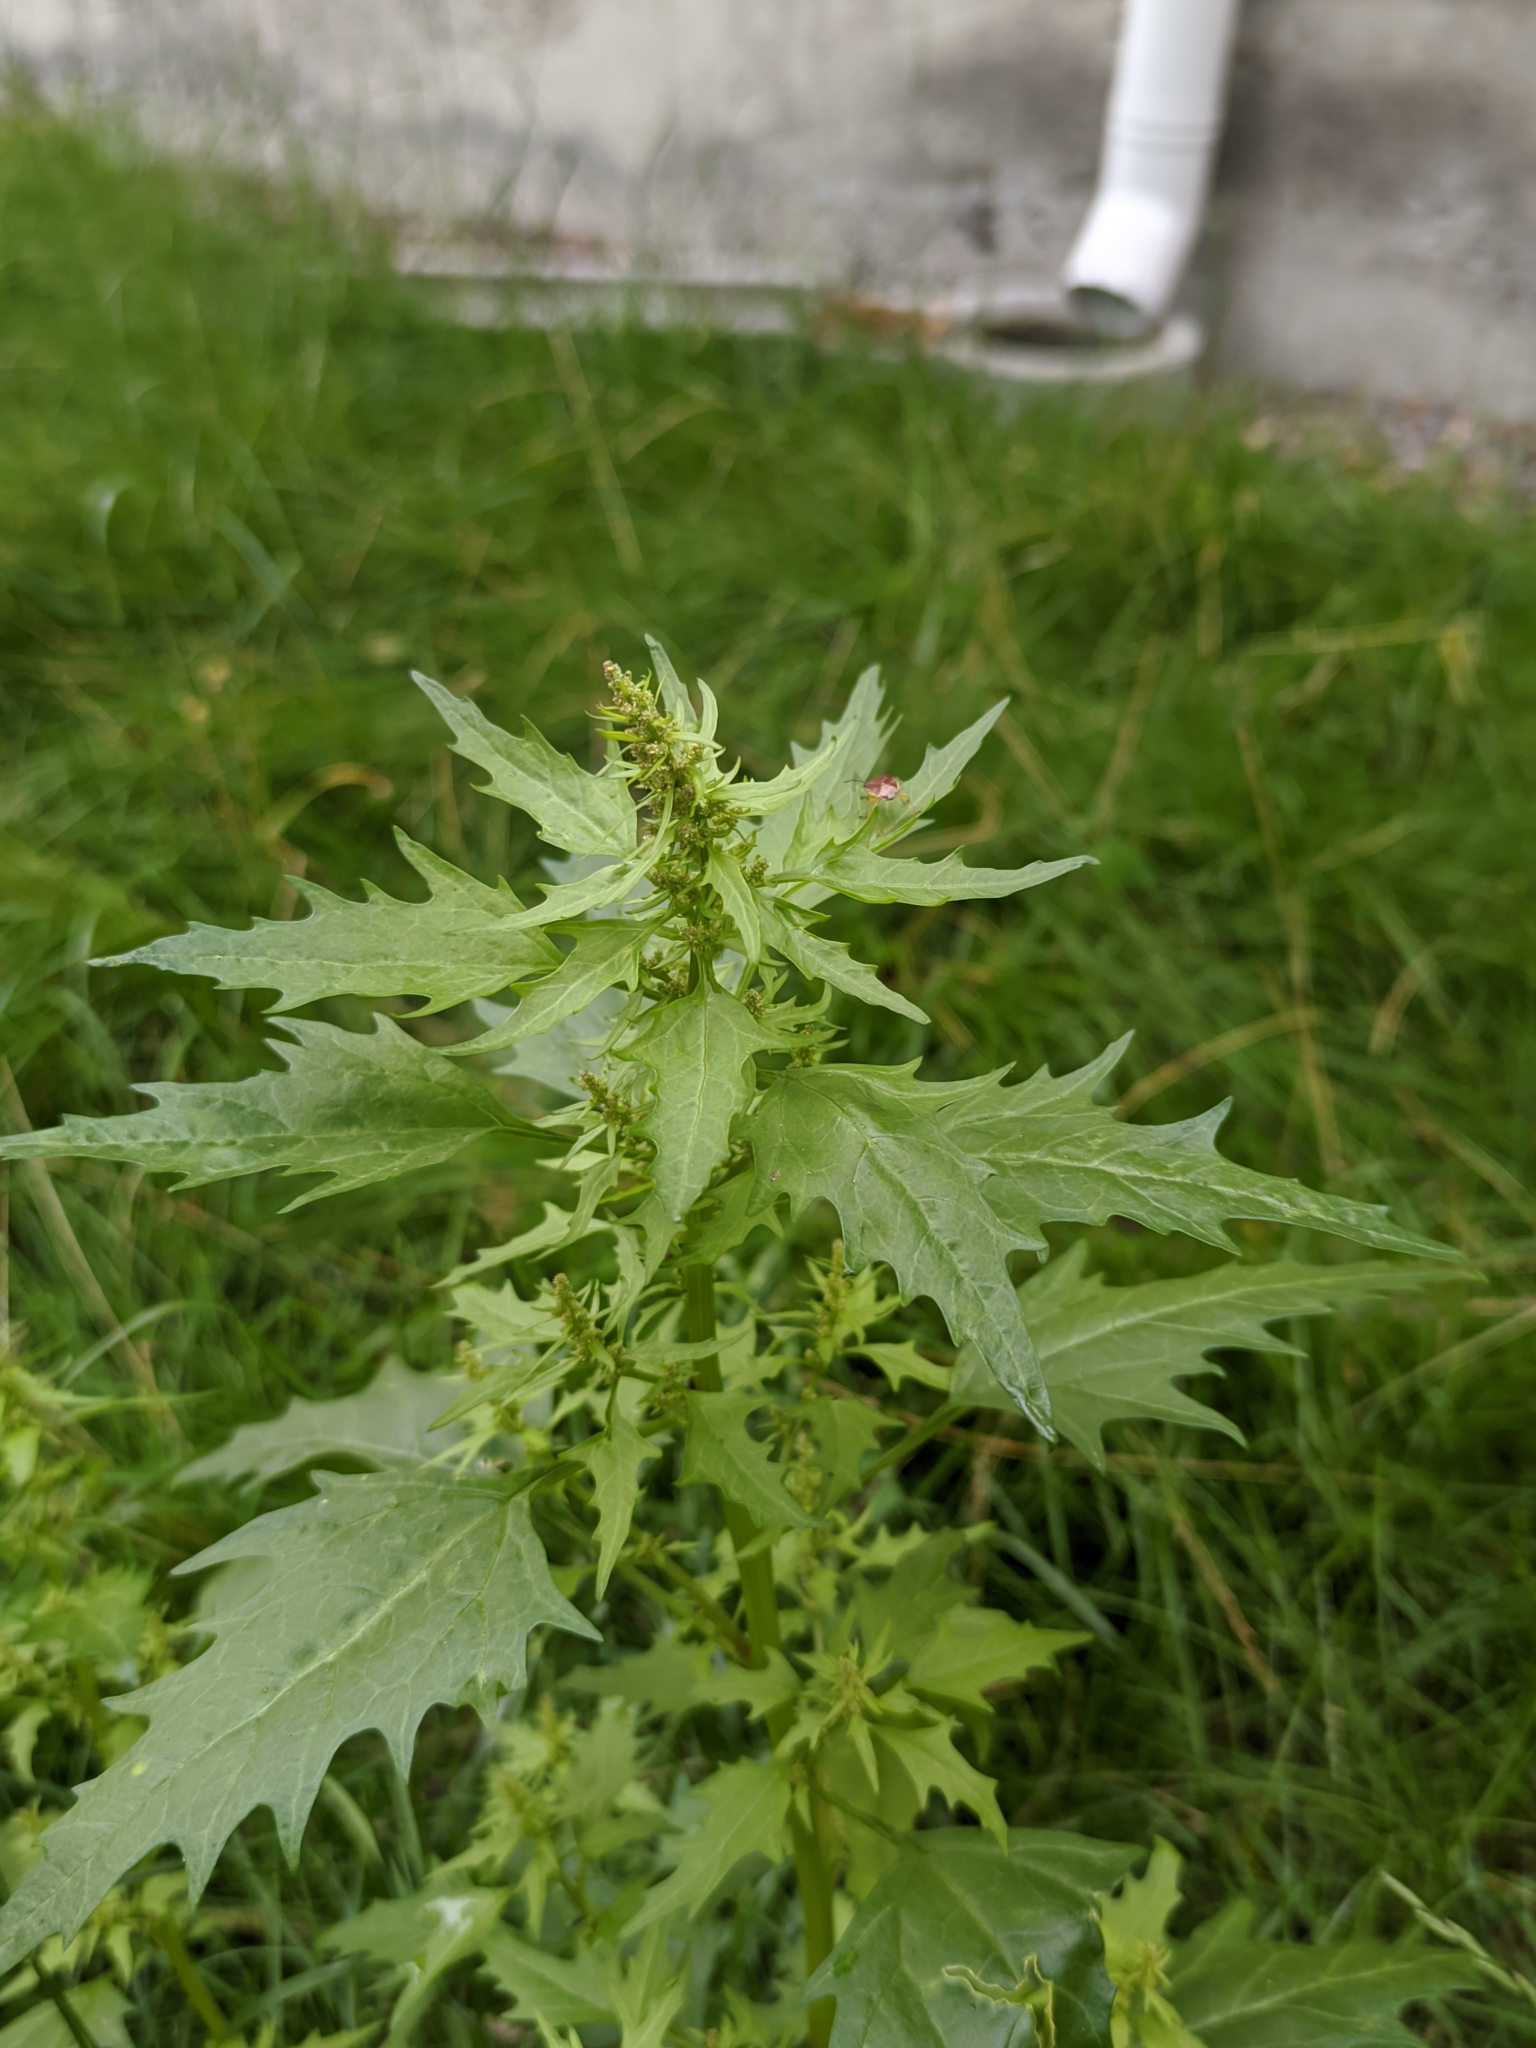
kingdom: Plantae
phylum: Tracheophyta
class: Magnoliopsida
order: Caryophyllales
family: Amaranthaceae
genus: Oxybasis
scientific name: Oxybasis rubra
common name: Red goosefoot
